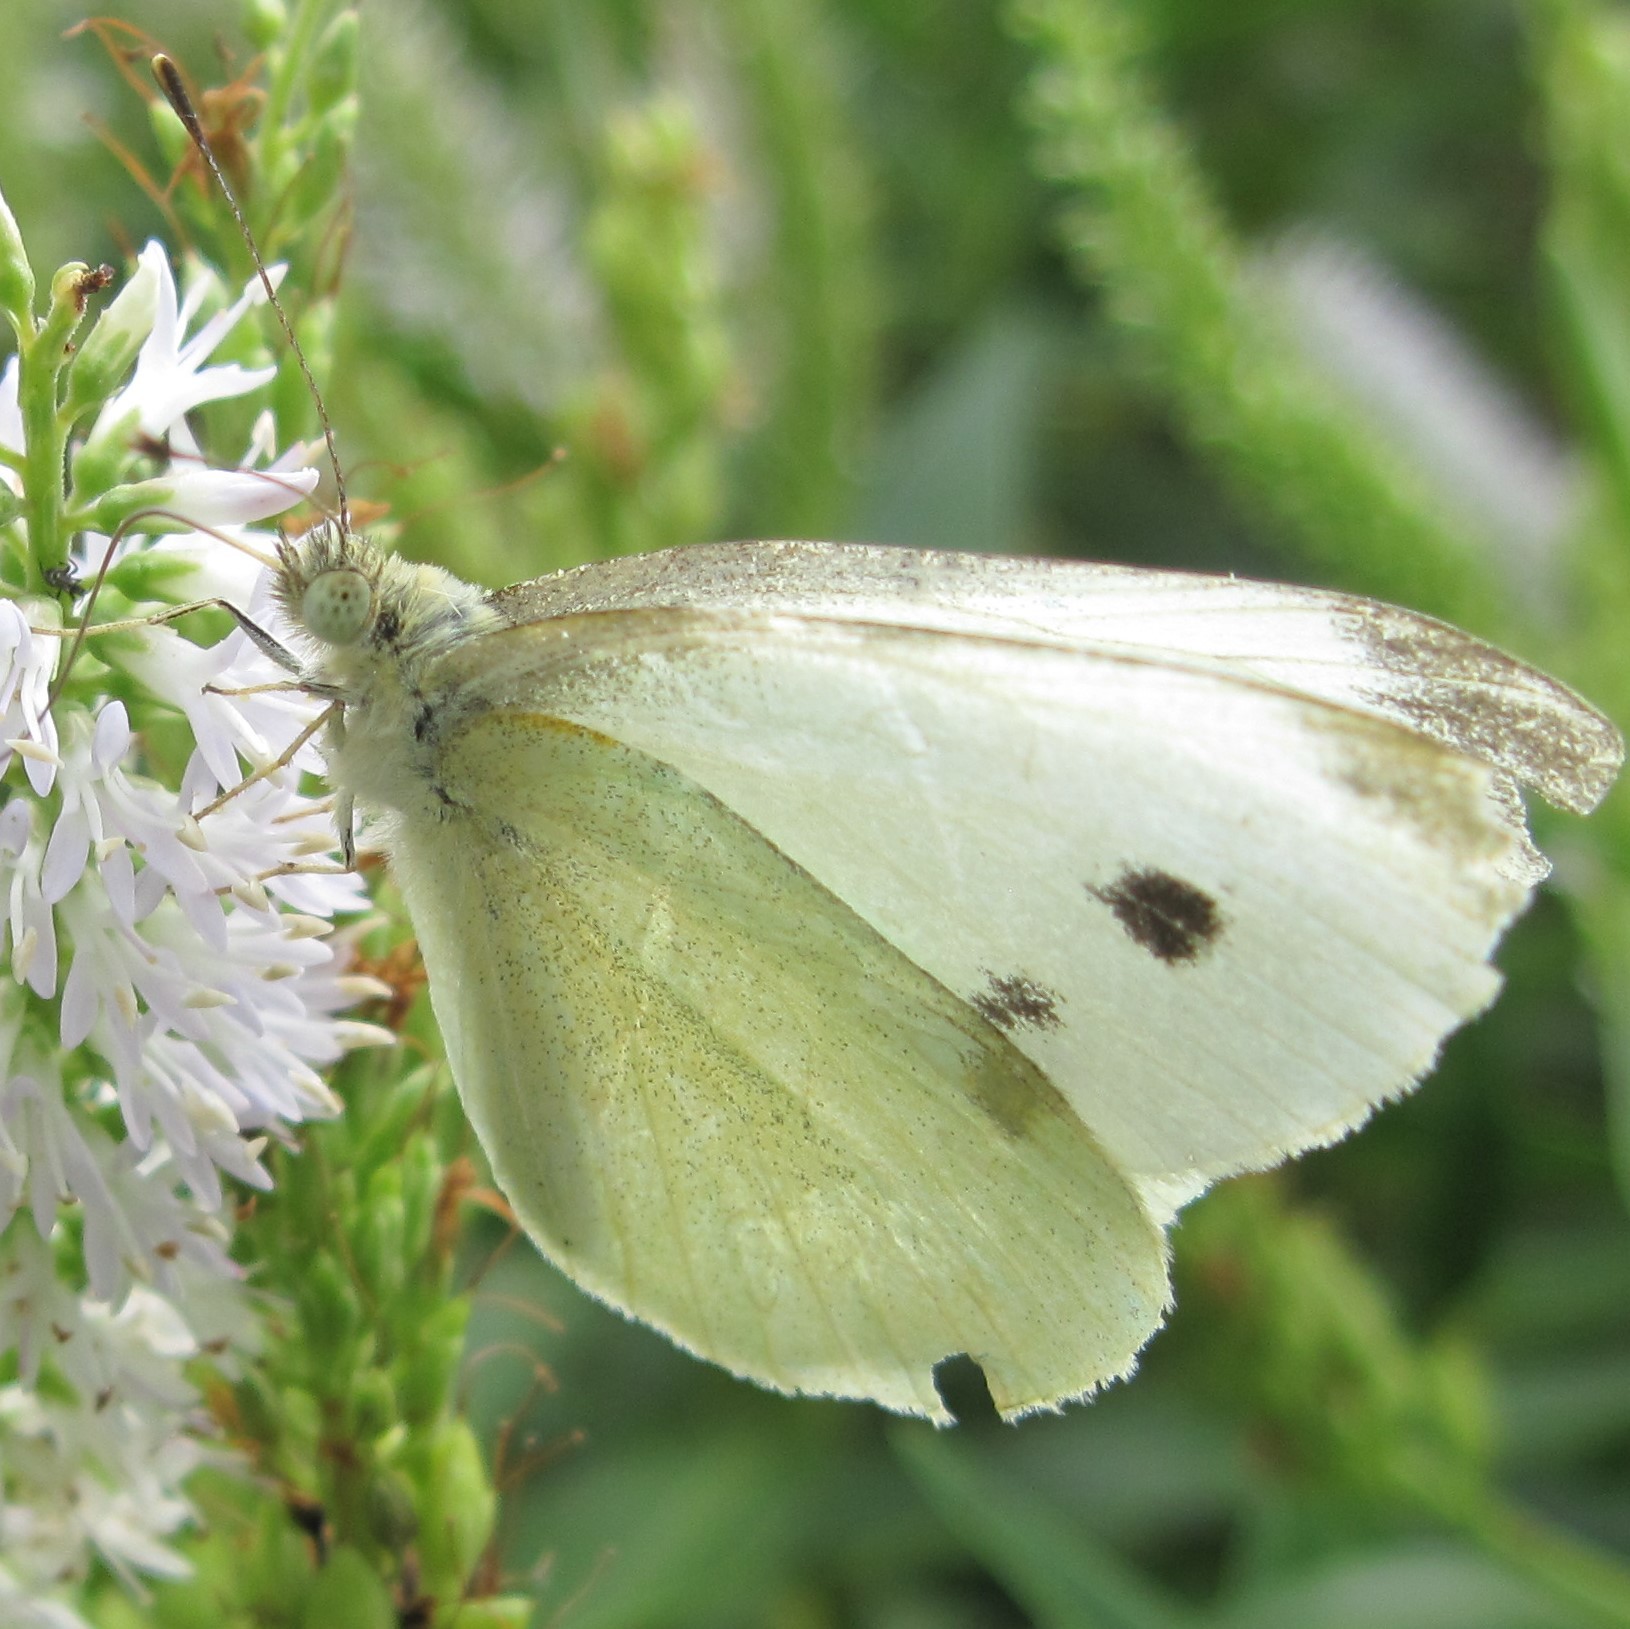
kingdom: Animalia
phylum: Arthropoda
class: Insecta
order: Lepidoptera
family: Pieridae
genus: Pieris
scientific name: Pieris rapae
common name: Small white
